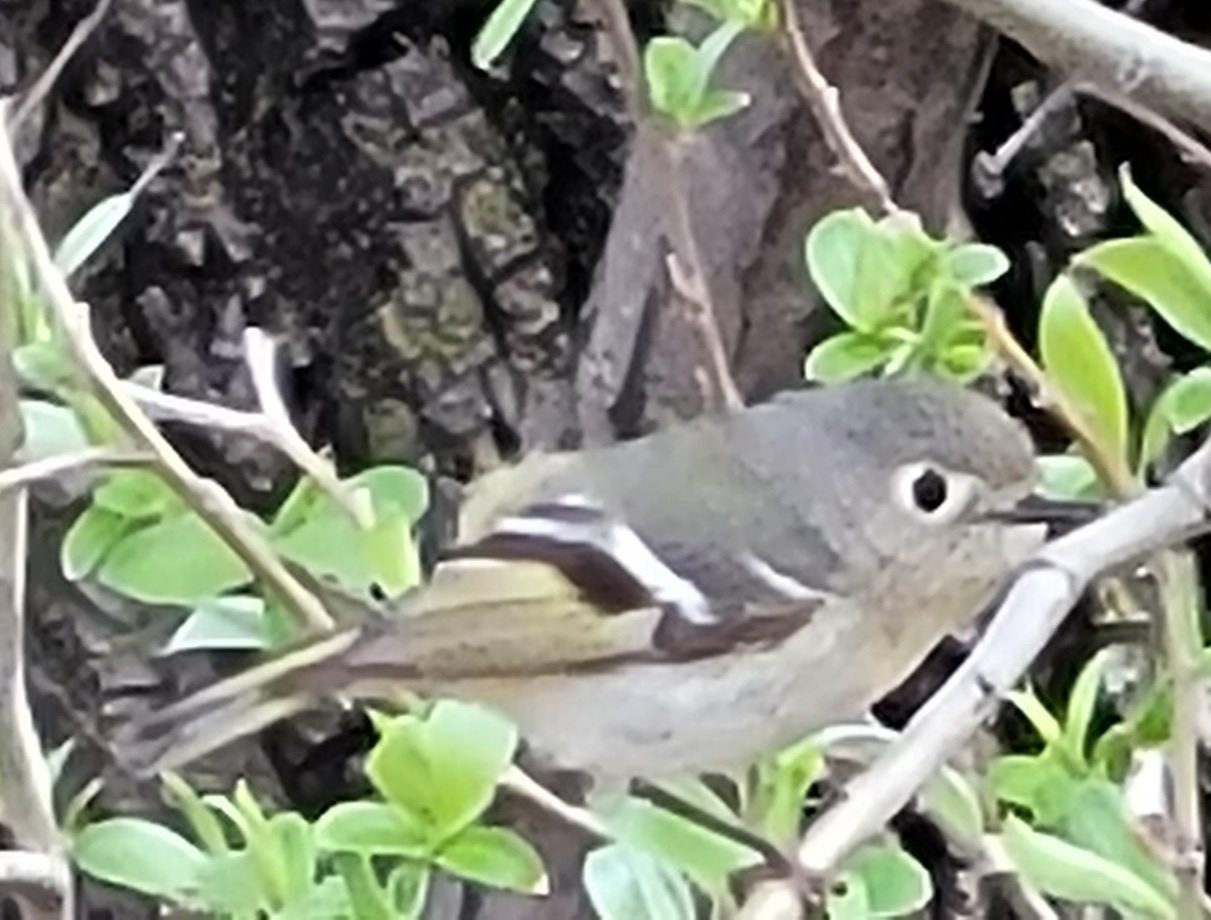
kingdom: Animalia
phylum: Chordata
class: Aves
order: Passeriformes
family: Regulidae
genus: Regulus
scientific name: Regulus calendula
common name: Ruby-crowned kinglet
